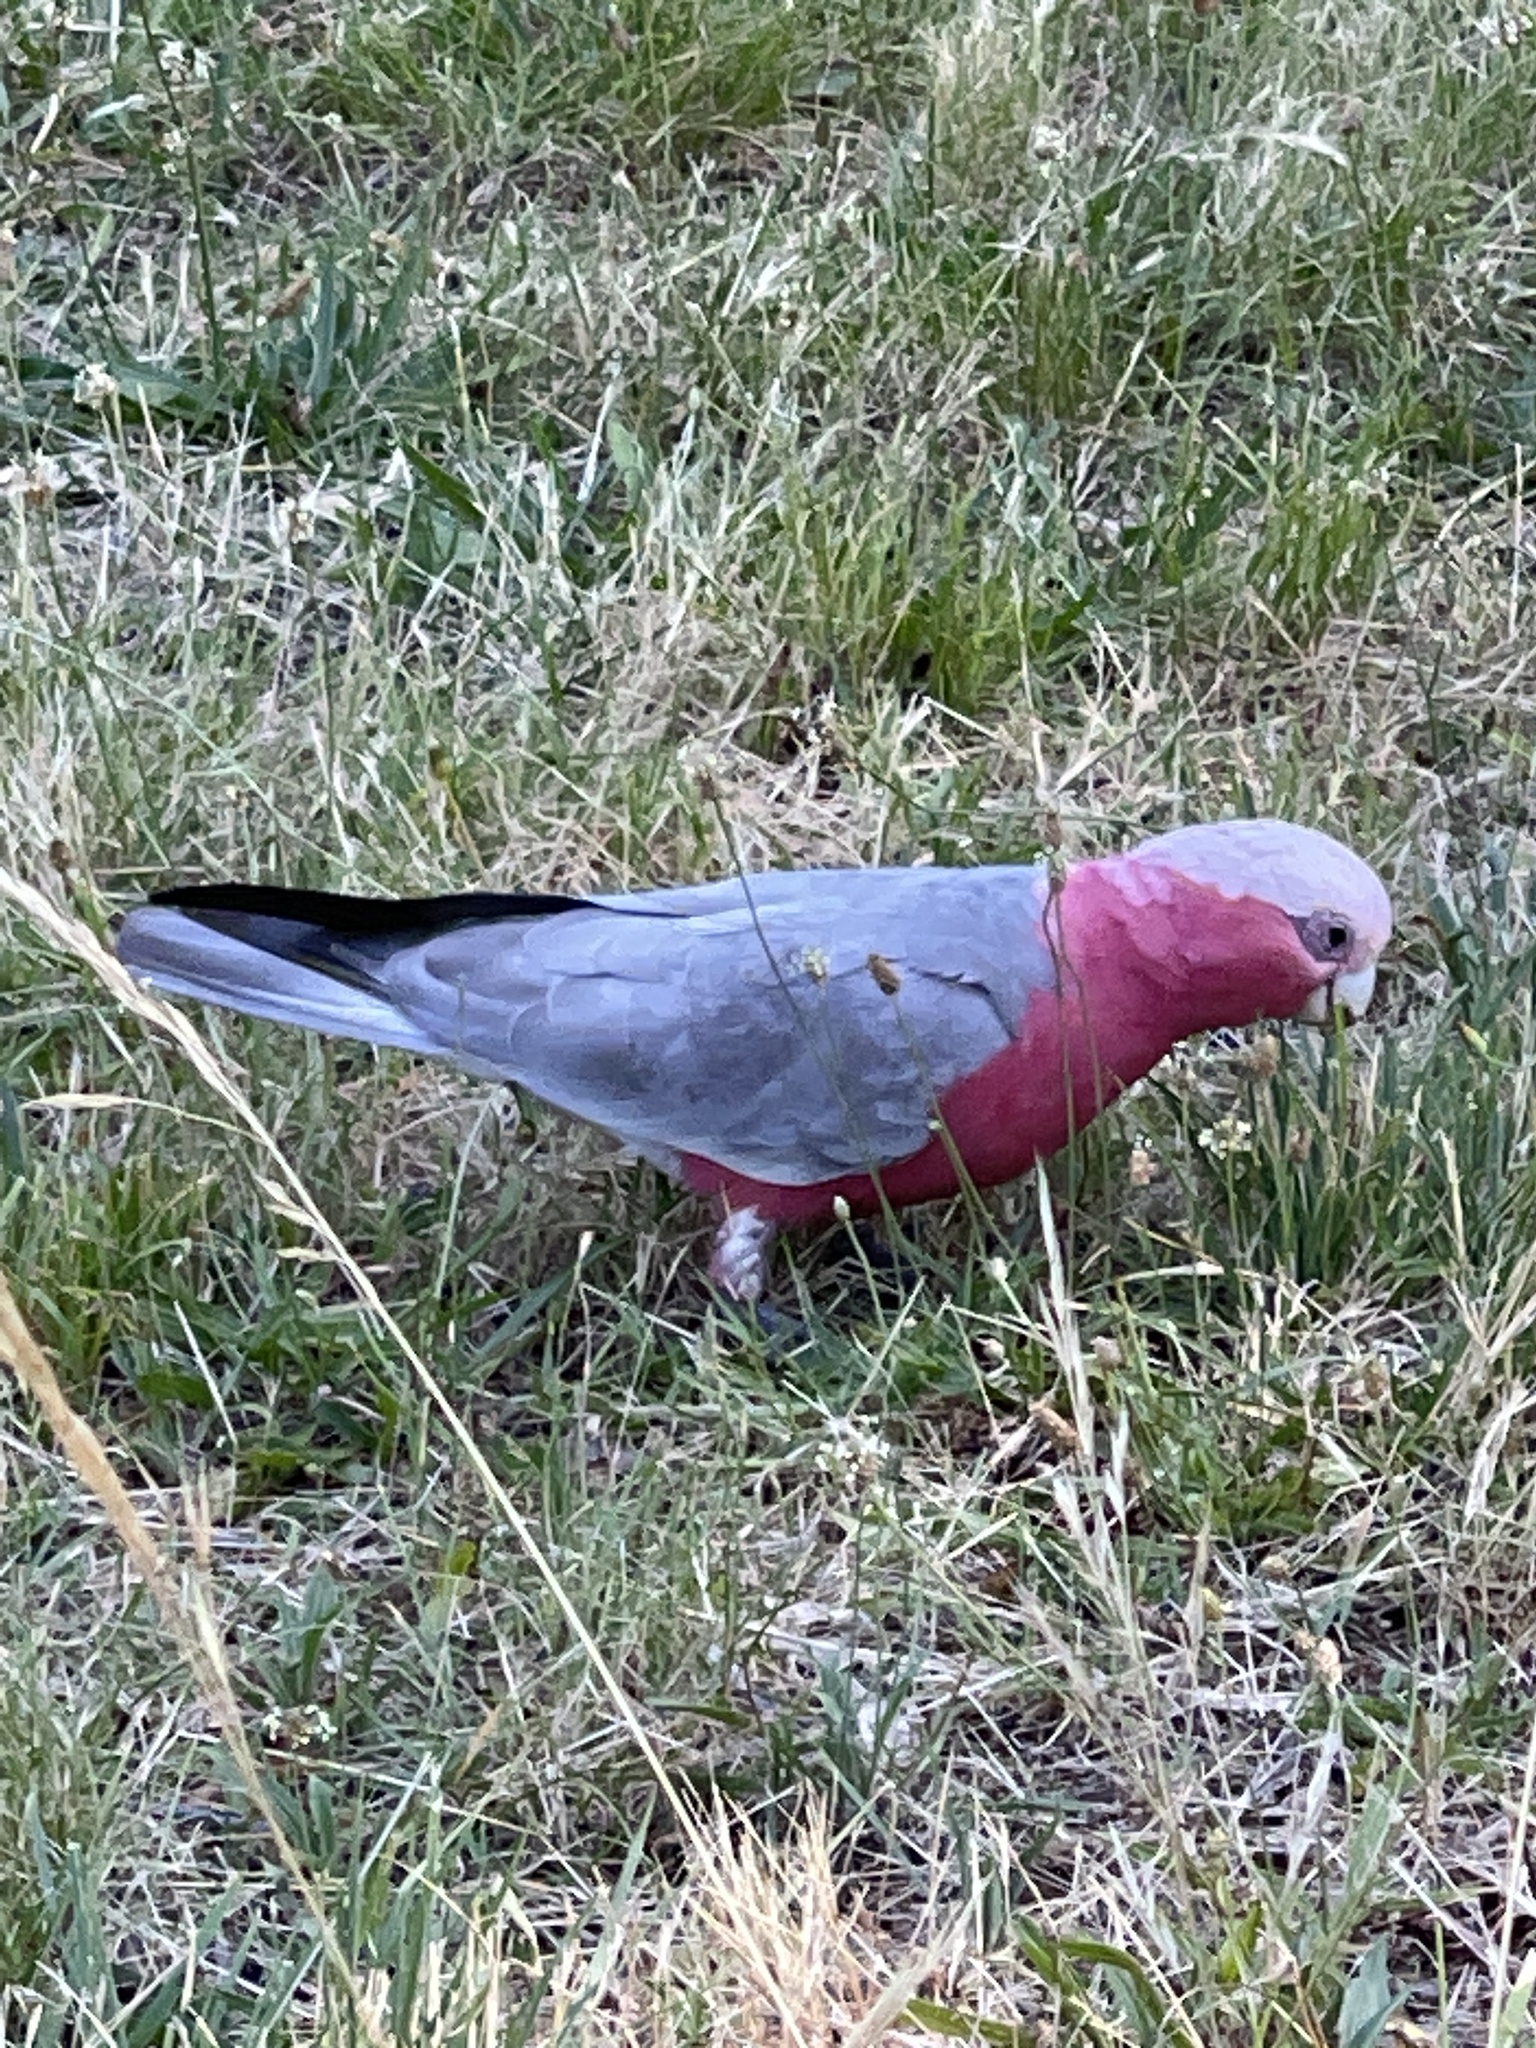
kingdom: Animalia
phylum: Chordata
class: Aves
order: Psittaciformes
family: Psittacidae
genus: Eolophus
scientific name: Eolophus roseicapilla
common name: Galah
